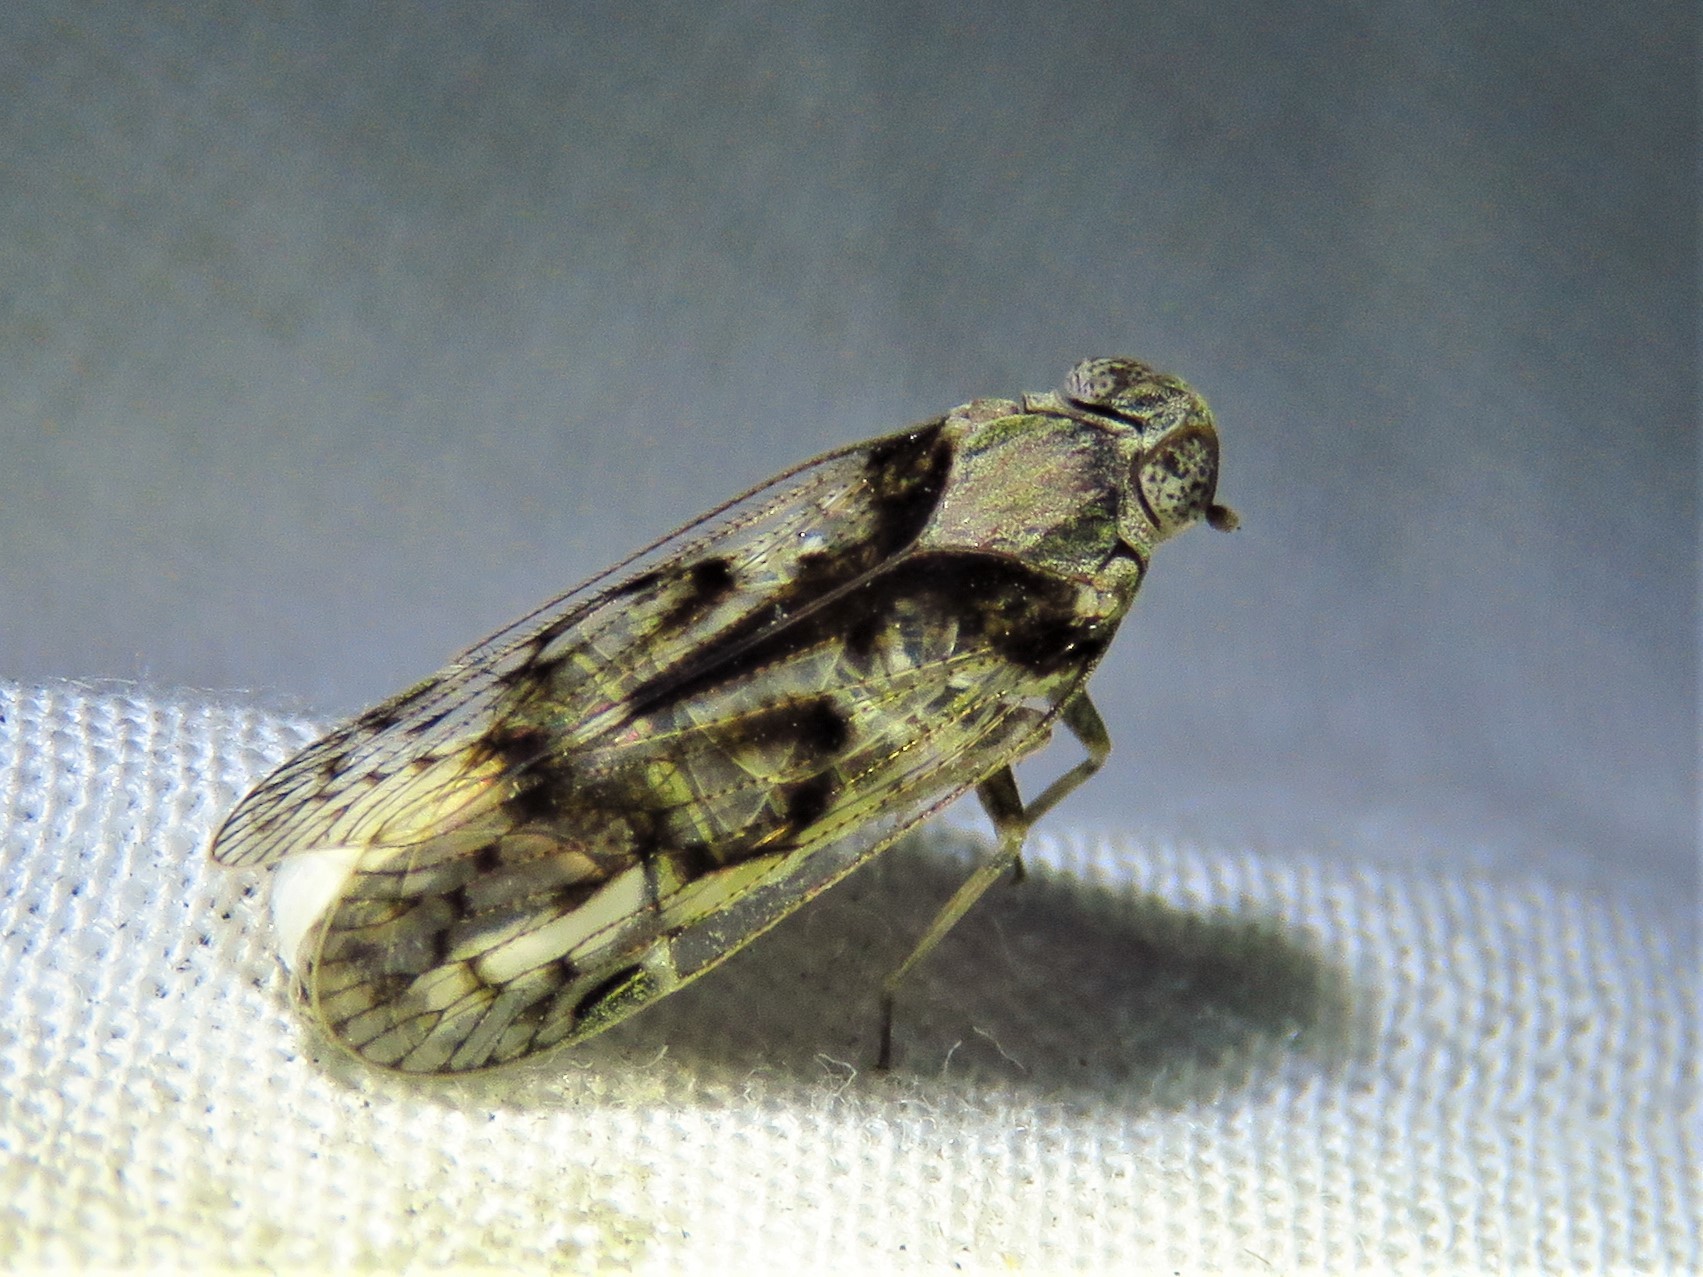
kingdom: Animalia
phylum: Arthropoda
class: Insecta
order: Hemiptera
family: Cixiidae
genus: Melanoliarus
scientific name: Melanoliarus aridus
